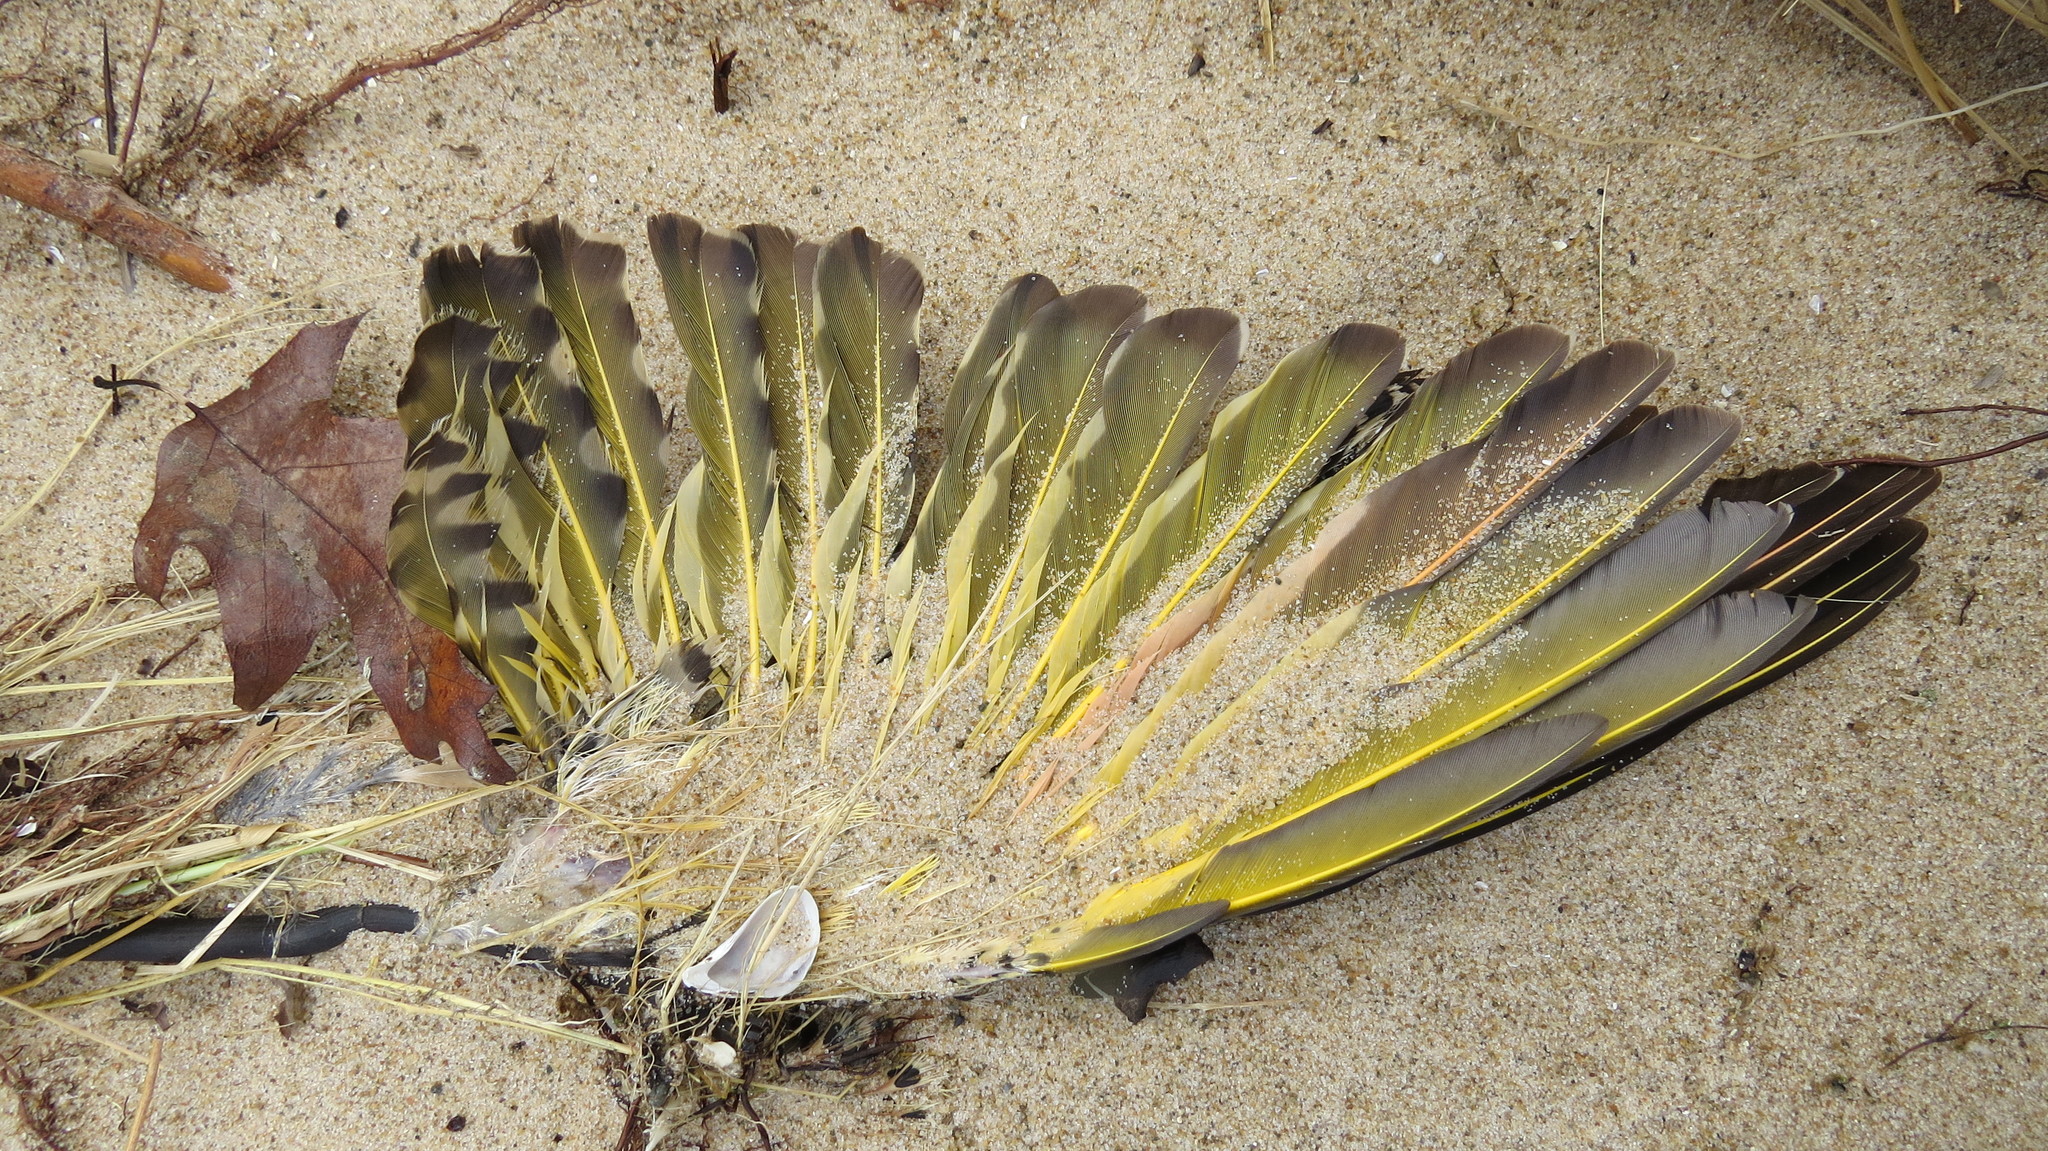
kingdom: Animalia
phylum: Chordata
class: Aves
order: Piciformes
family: Picidae
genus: Colaptes
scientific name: Colaptes auratus
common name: Northern flicker
